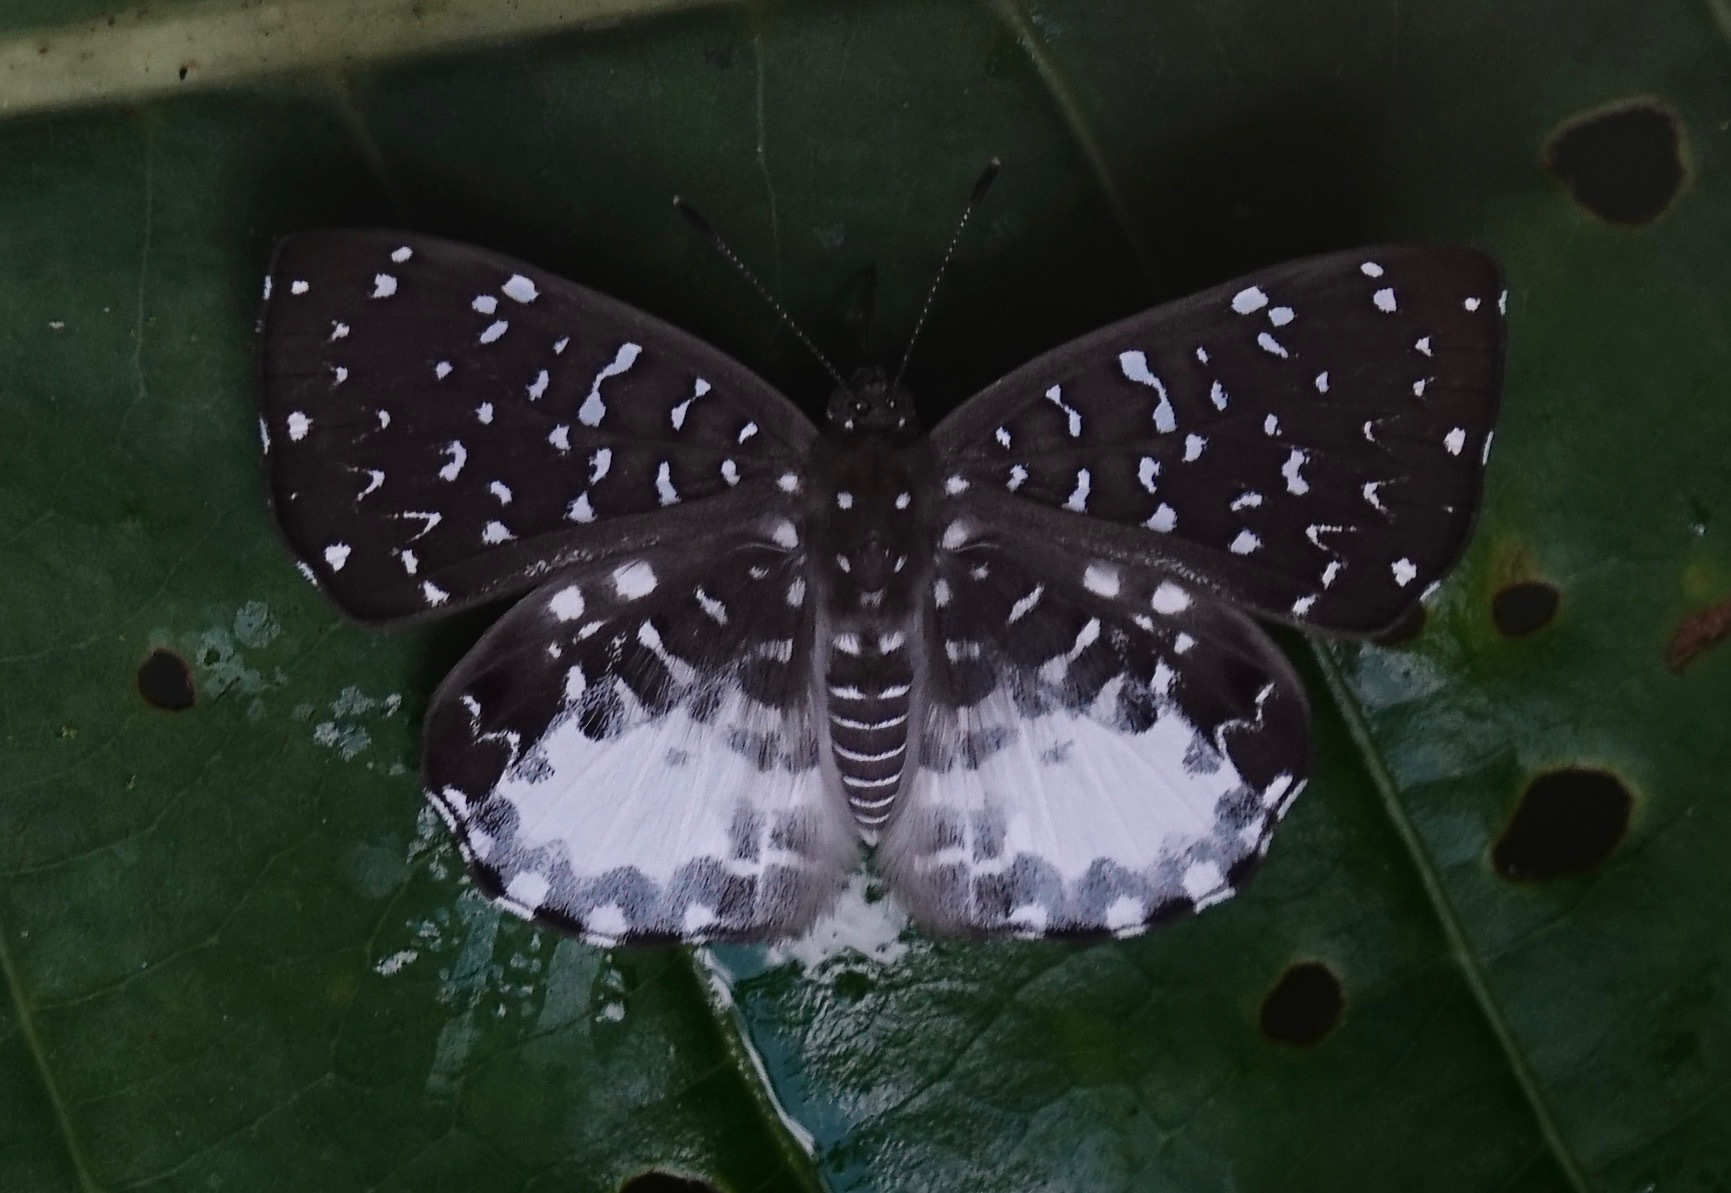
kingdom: Animalia
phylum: Arthropoda
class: Insecta
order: Diptera
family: Ephydridae
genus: Napaea
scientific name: Napaea beltiana
